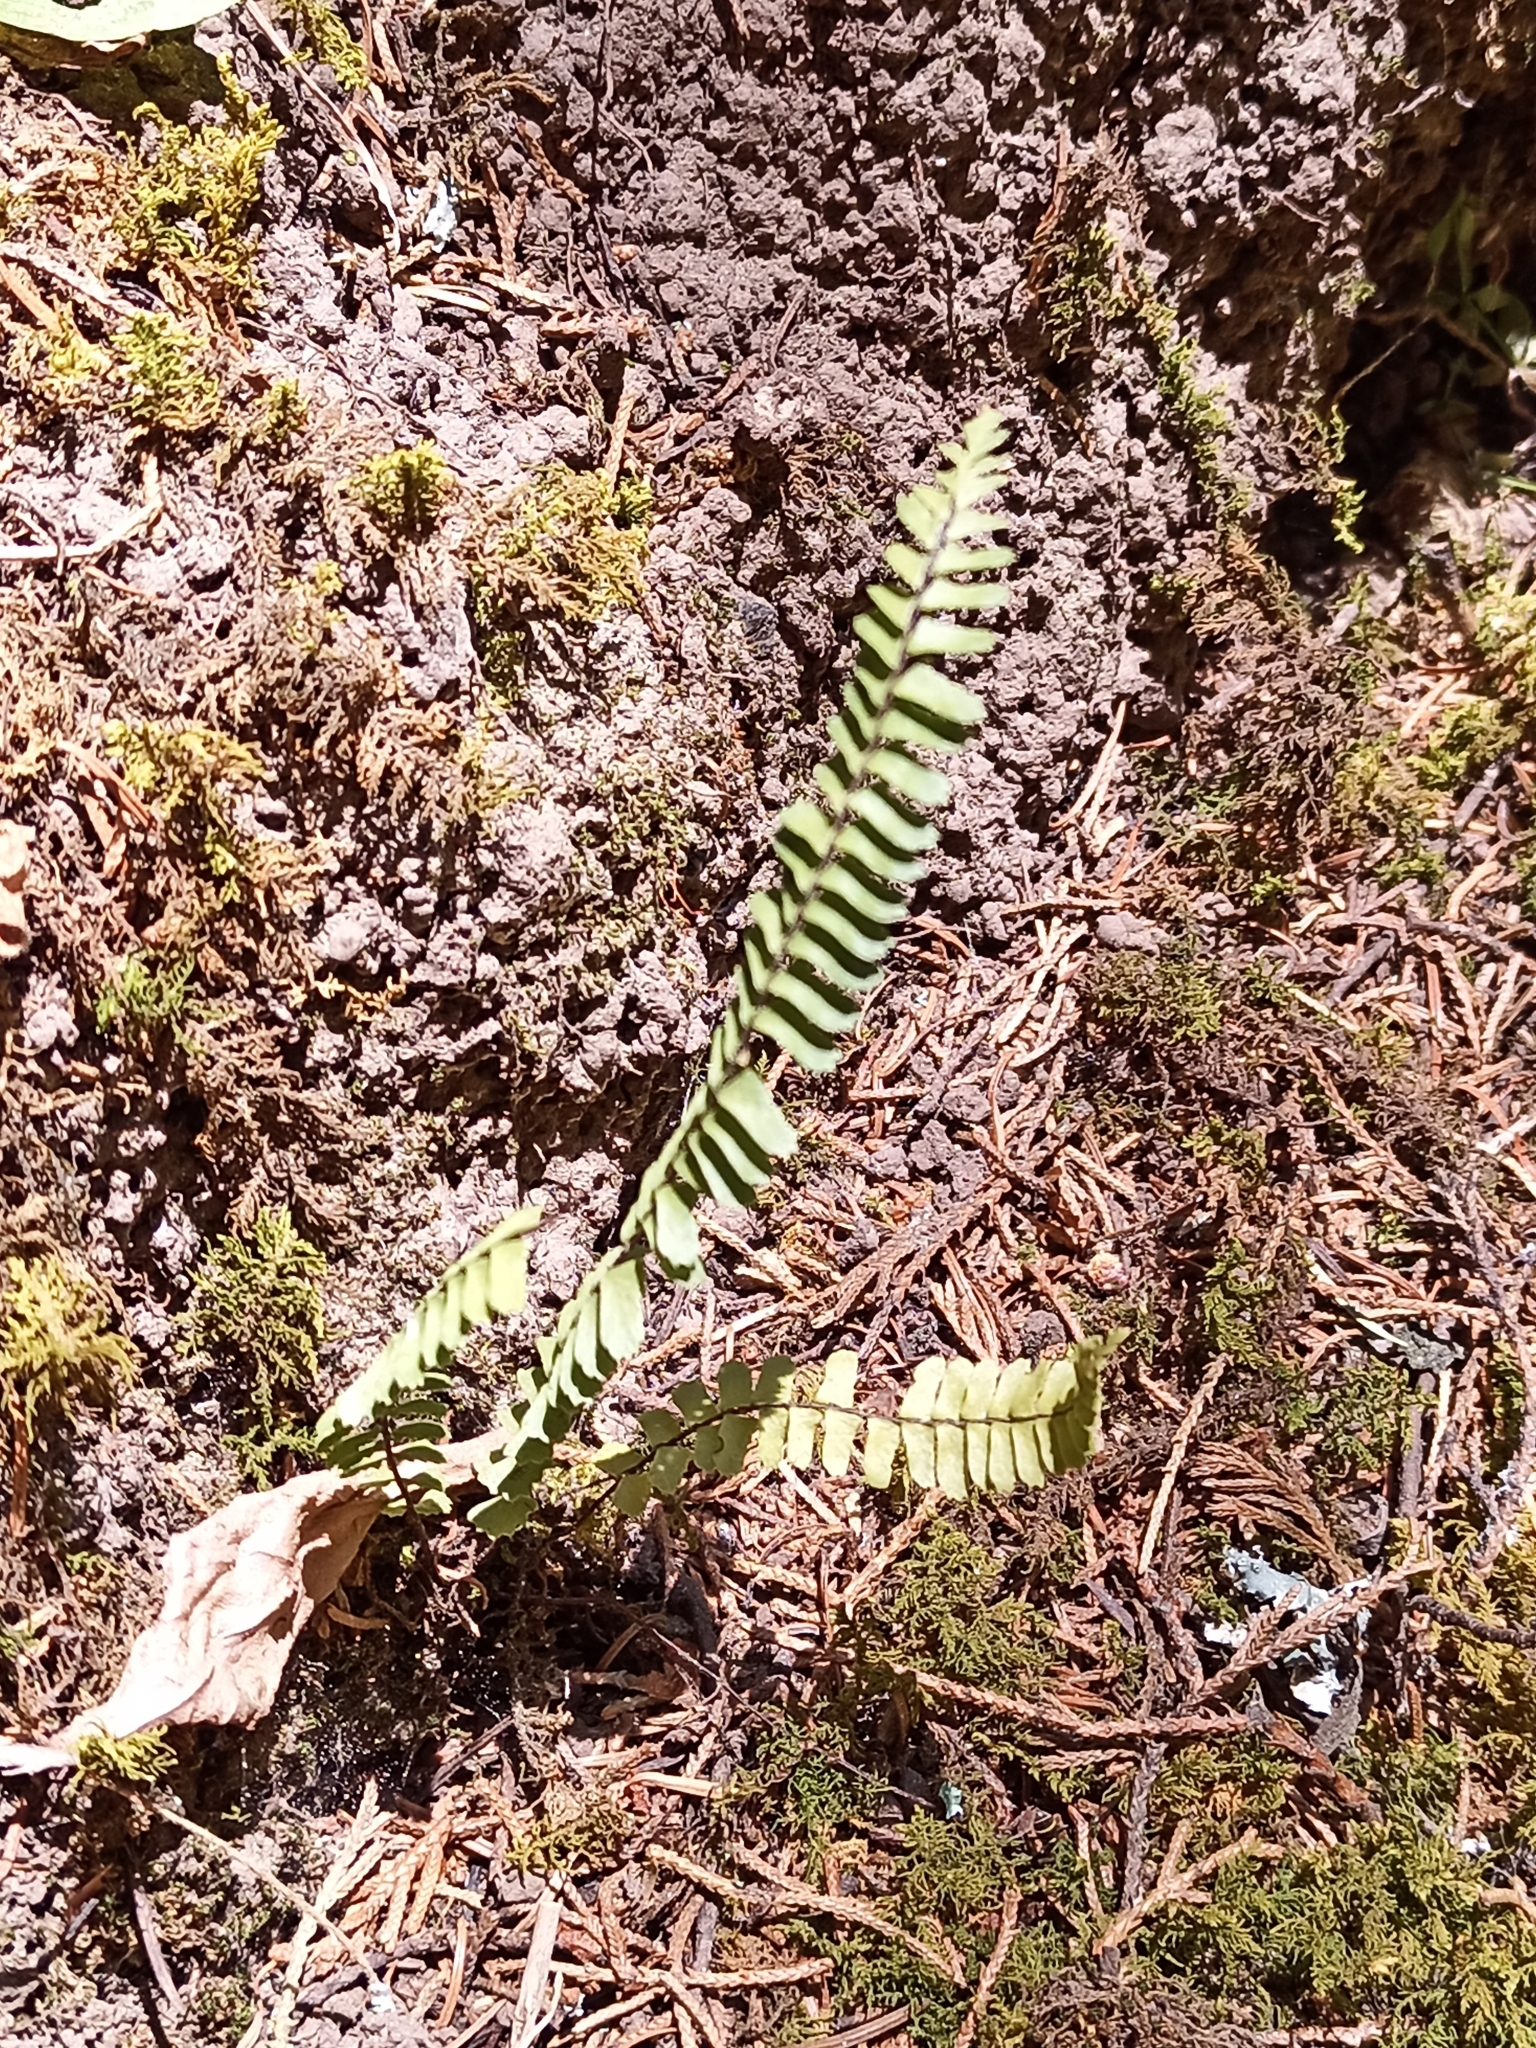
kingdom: Plantae
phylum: Tracheophyta
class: Polypodiopsida
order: Polypodiales
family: Aspleniaceae
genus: Asplenium
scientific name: Asplenium
